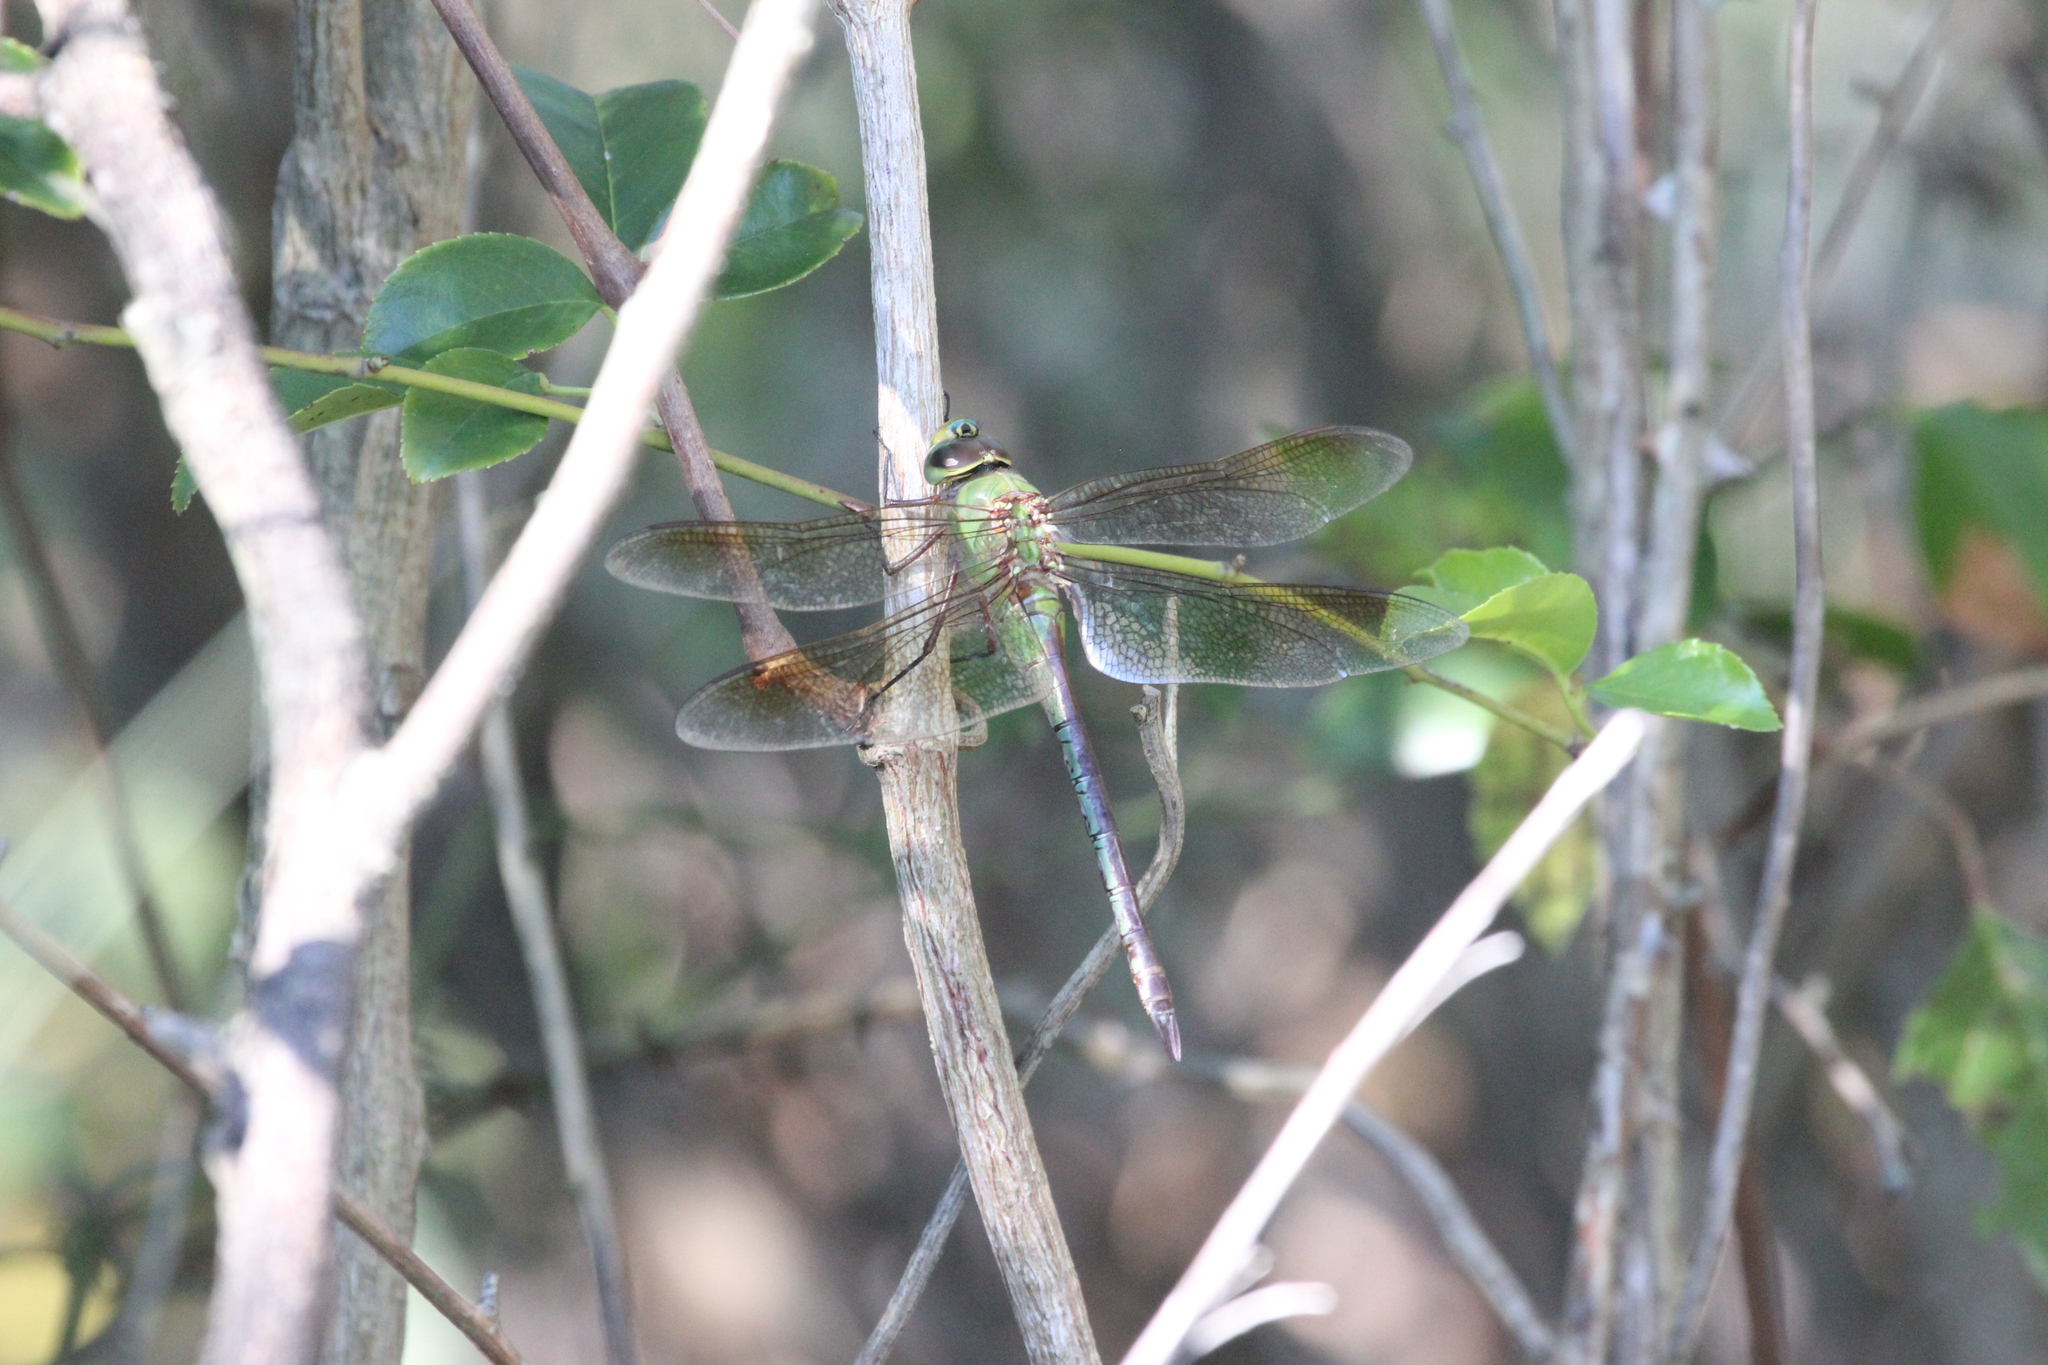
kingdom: Animalia
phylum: Arthropoda
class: Insecta
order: Odonata
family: Aeshnidae
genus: Anax
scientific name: Anax junius
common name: Common green darner
